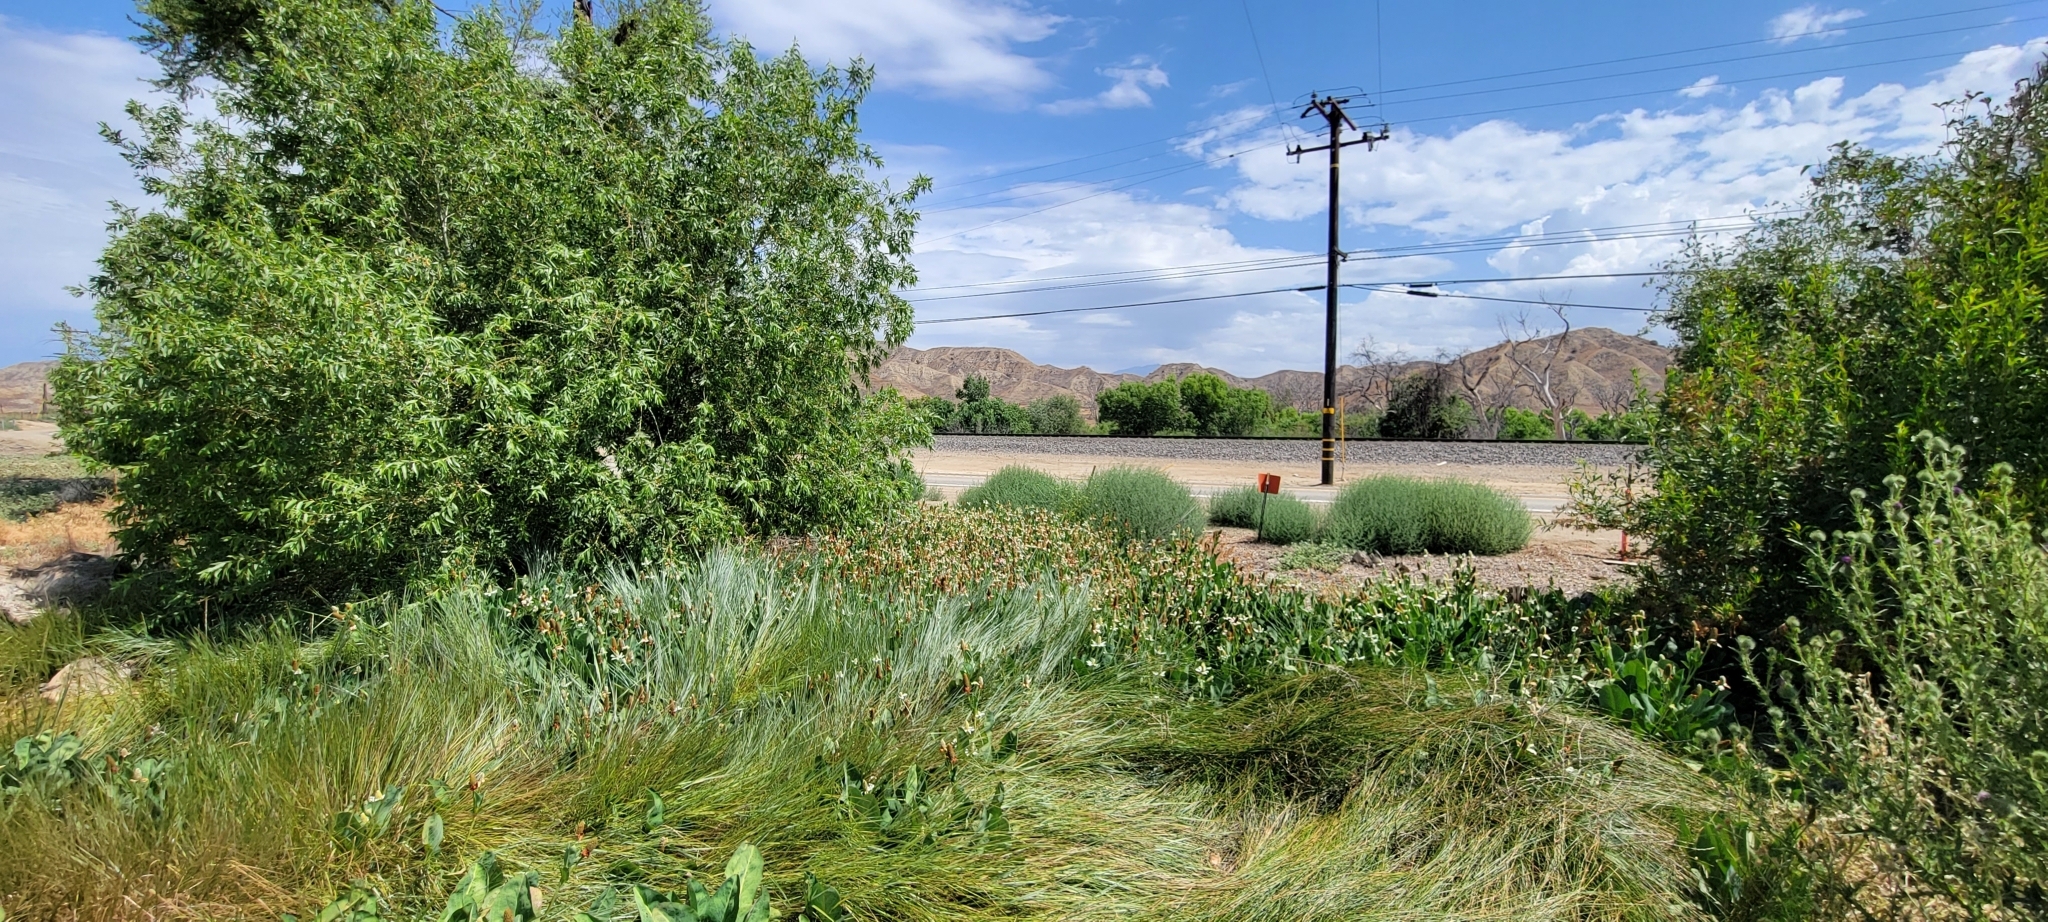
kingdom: Plantae
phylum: Tracheophyta
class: Magnoliopsida
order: Piperales
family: Saururaceae
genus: Anemopsis
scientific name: Anemopsis californica
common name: Apache-beads
